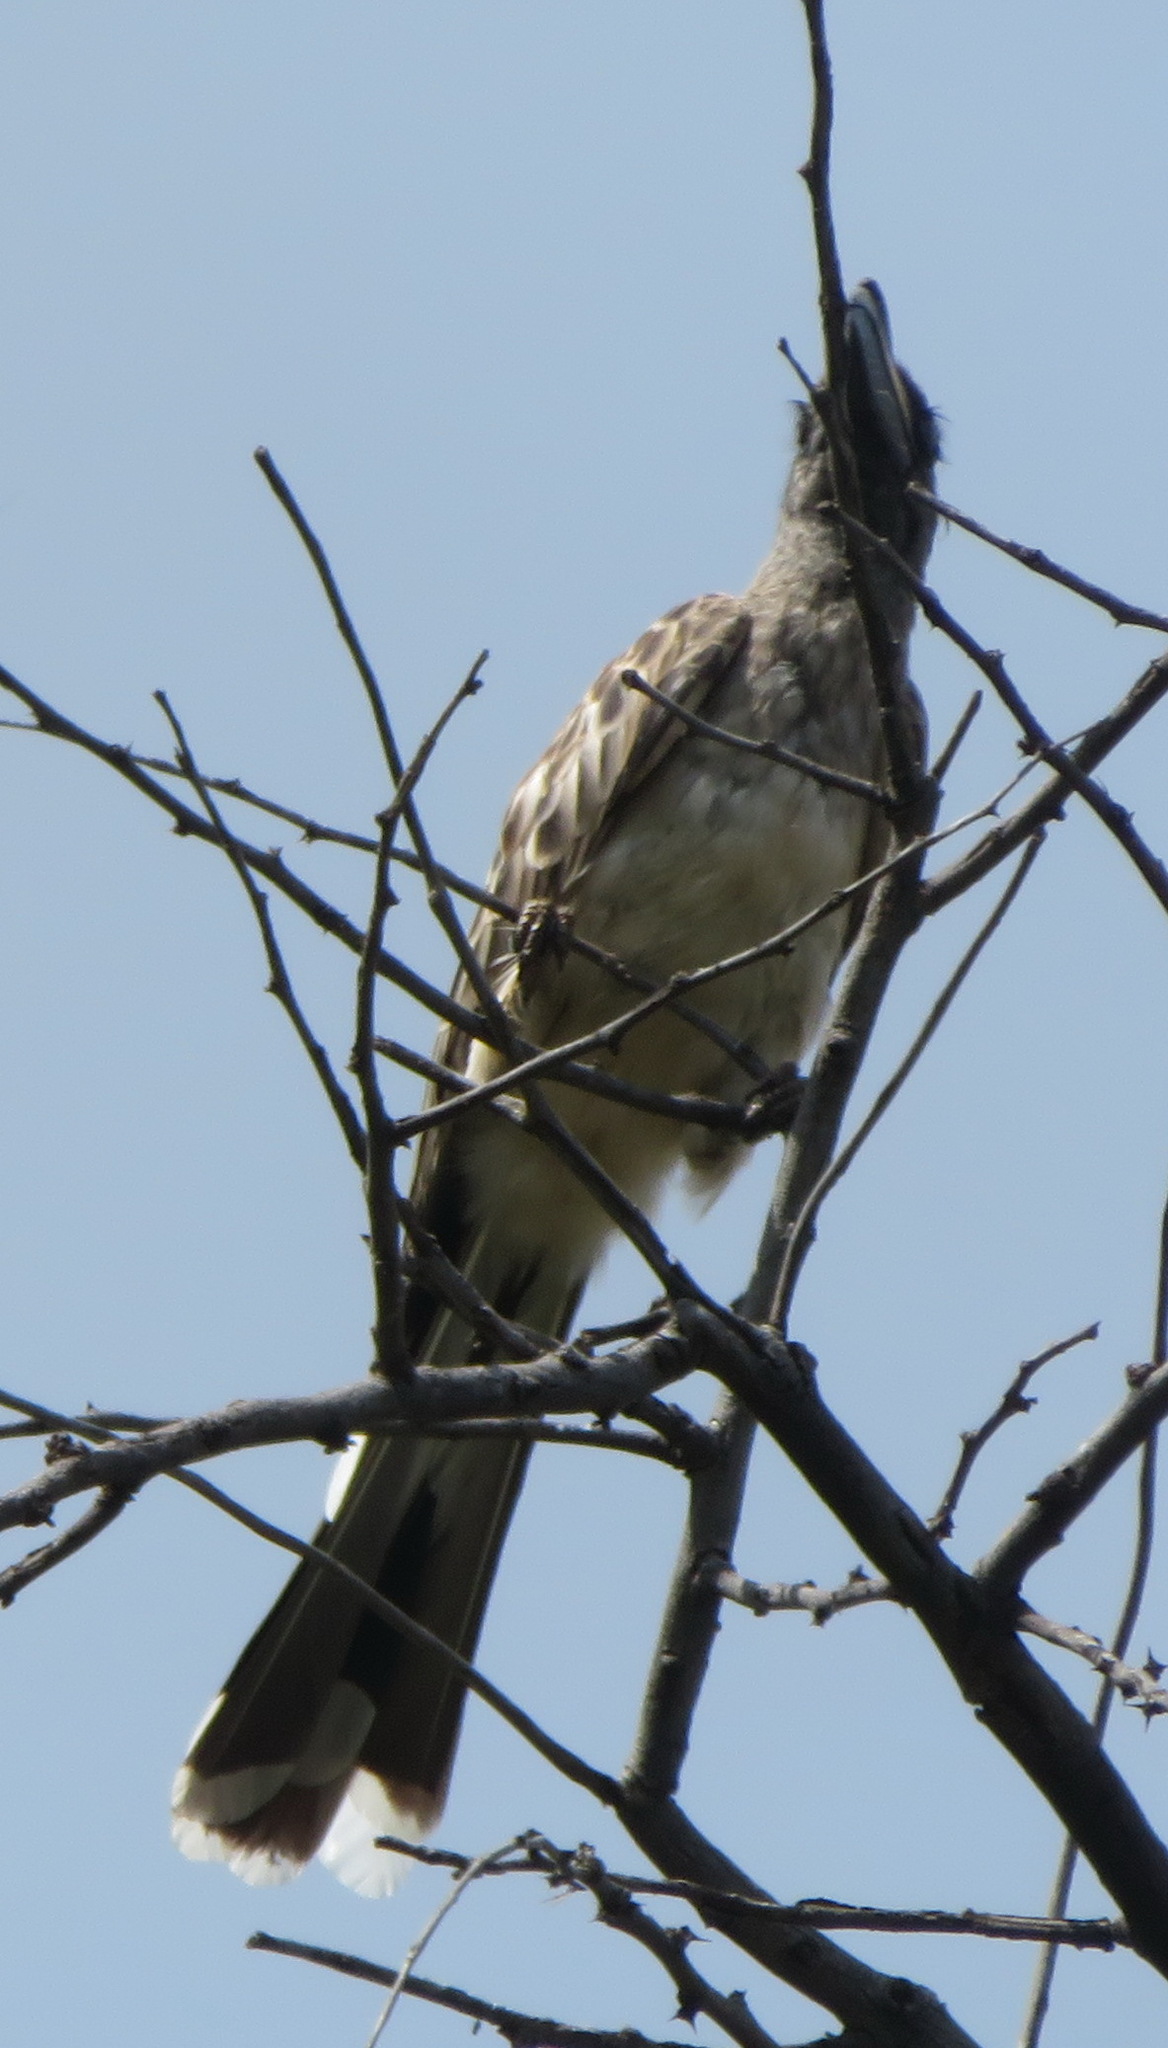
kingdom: Animalia
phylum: Chordata
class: Aves
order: Bucerotiformes
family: Bucerotidae
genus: Lophoceros
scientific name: Lophoceros nasutus
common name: African grey hornbill
